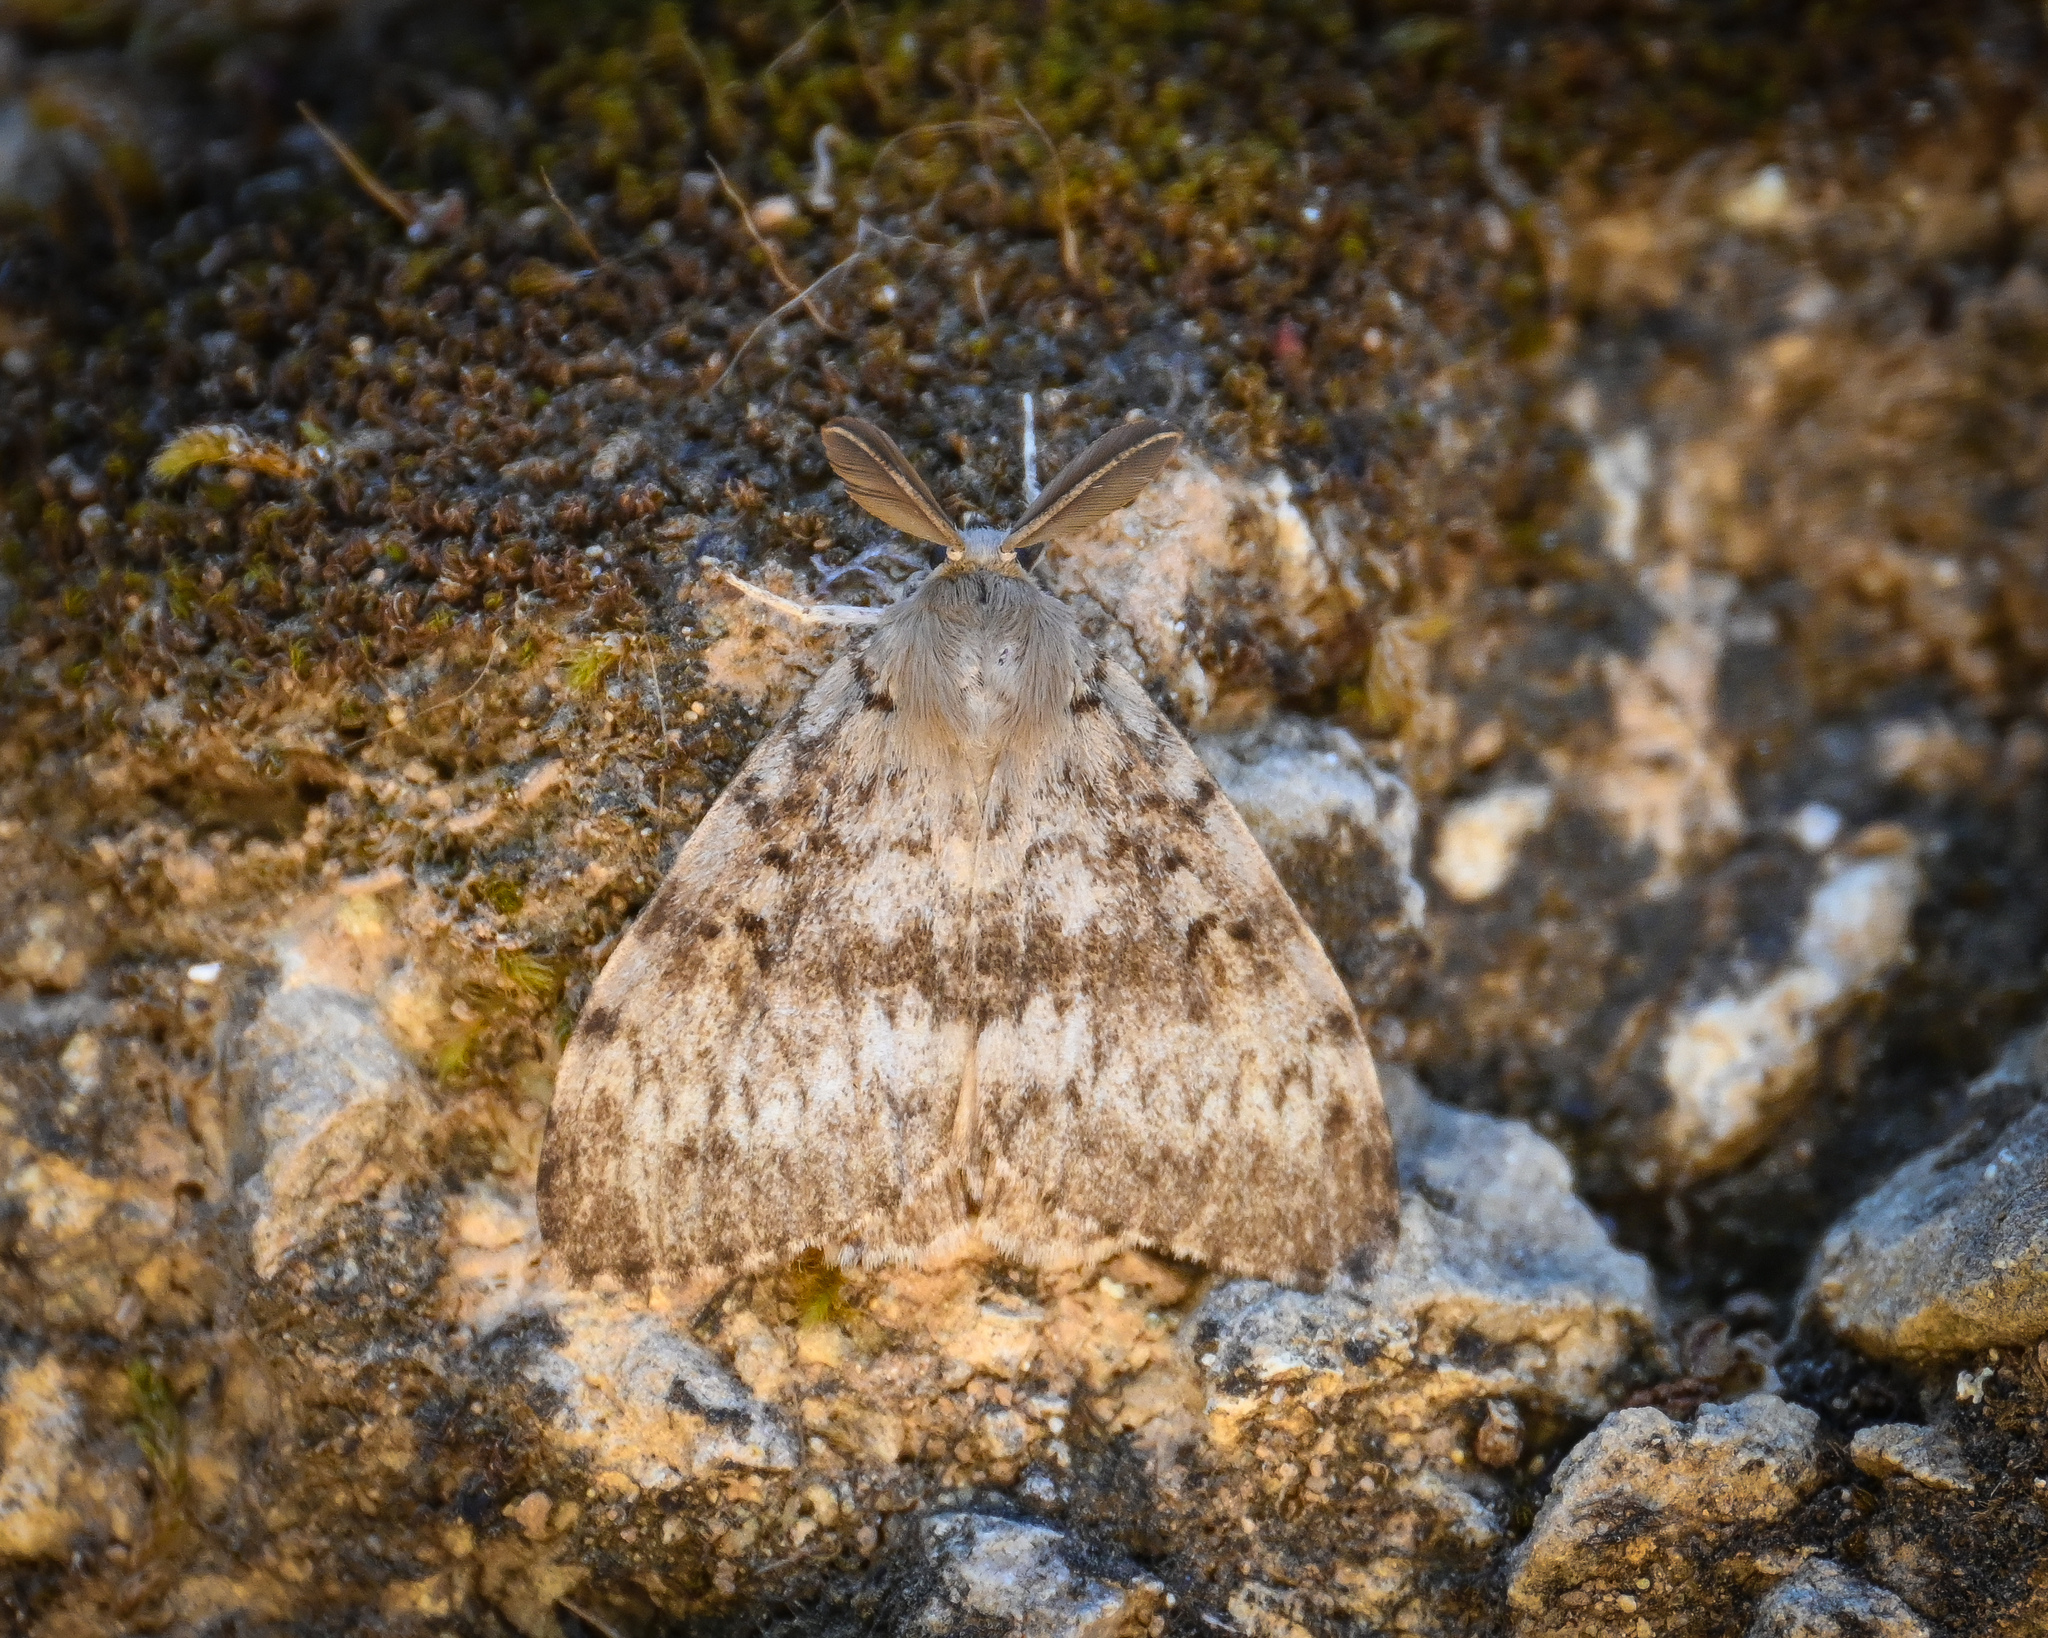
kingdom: Animalia
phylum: Arthropoda
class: Insecta
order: Lepidoptera
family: Erebidae
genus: Lymantria
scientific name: Lymantria dispar
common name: Gypsy moth
